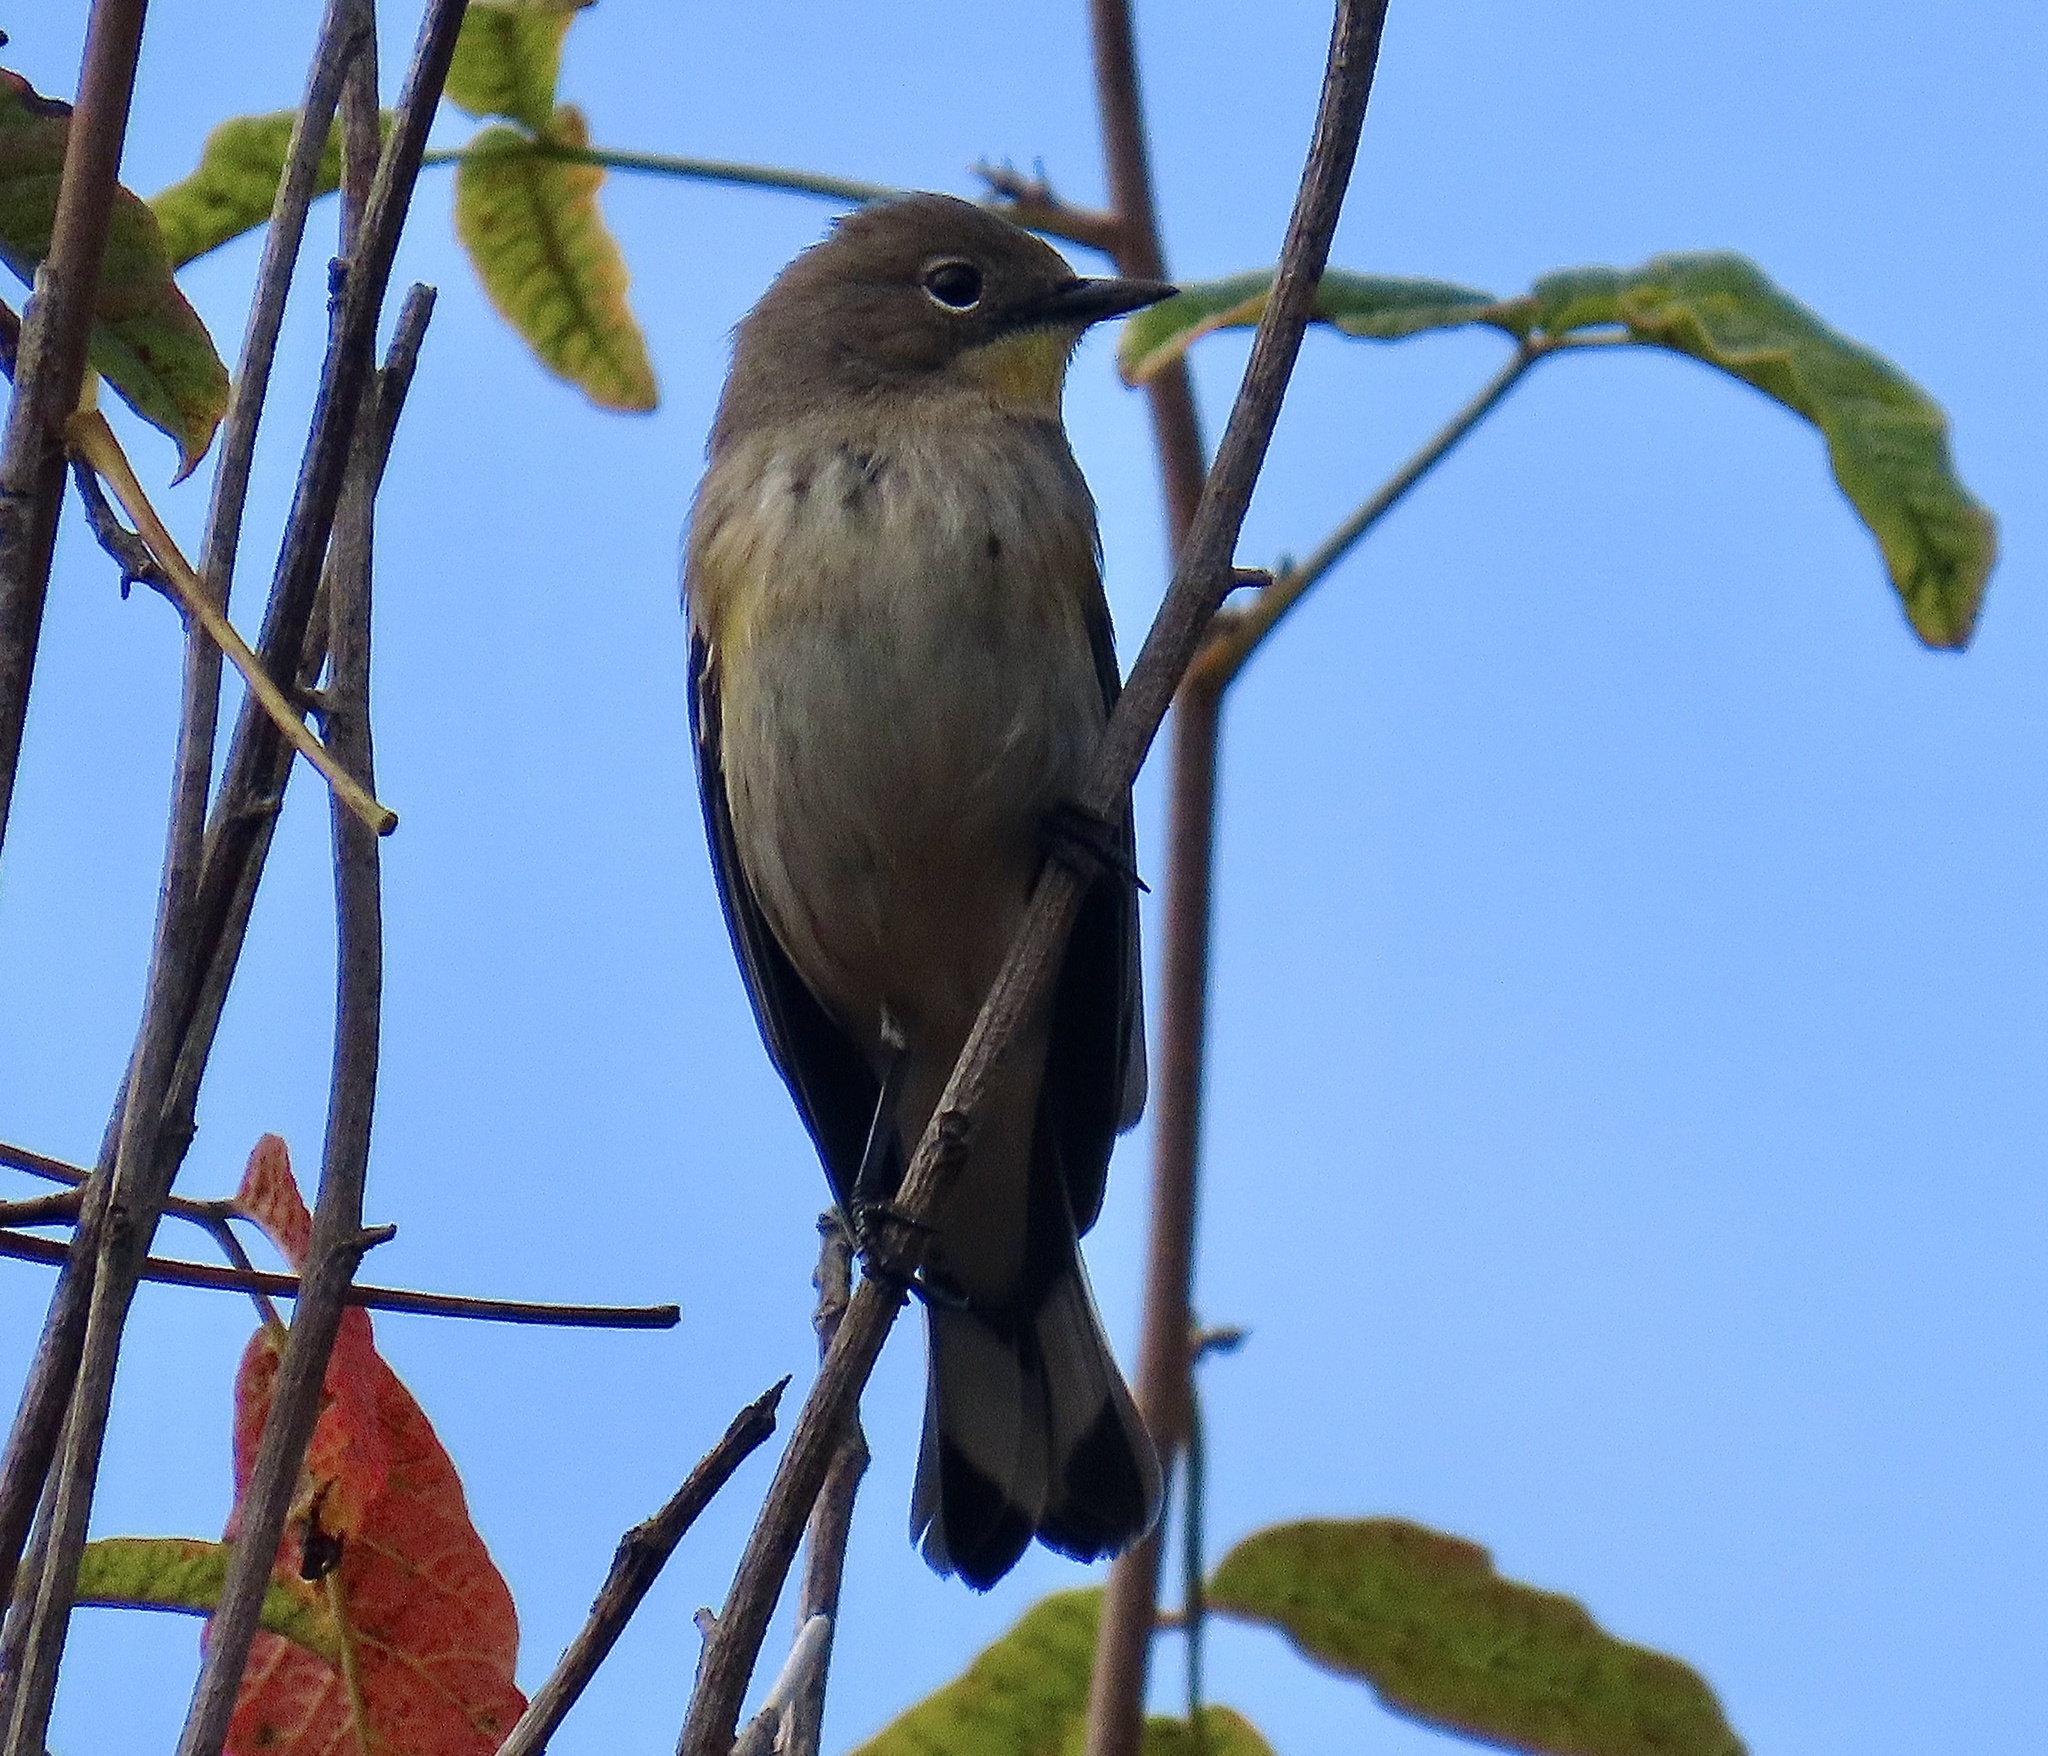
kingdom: Animalia
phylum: Chordata
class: Aves
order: Passeriformes
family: Parulidae
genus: Setophaga
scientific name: Setophaga coronata
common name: Myrtle warbler
